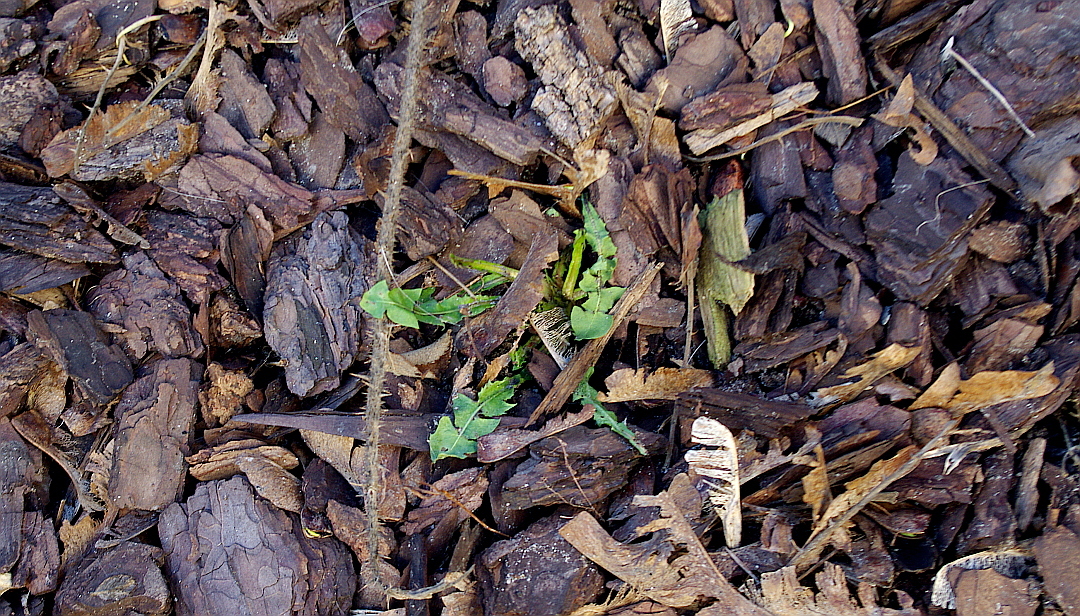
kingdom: Plantae
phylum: Tracheophyta
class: Magnoliopsida
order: Asterales
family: Asteraceae
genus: Taraxacum
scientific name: Taraxacum officinale
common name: Common dandelion
